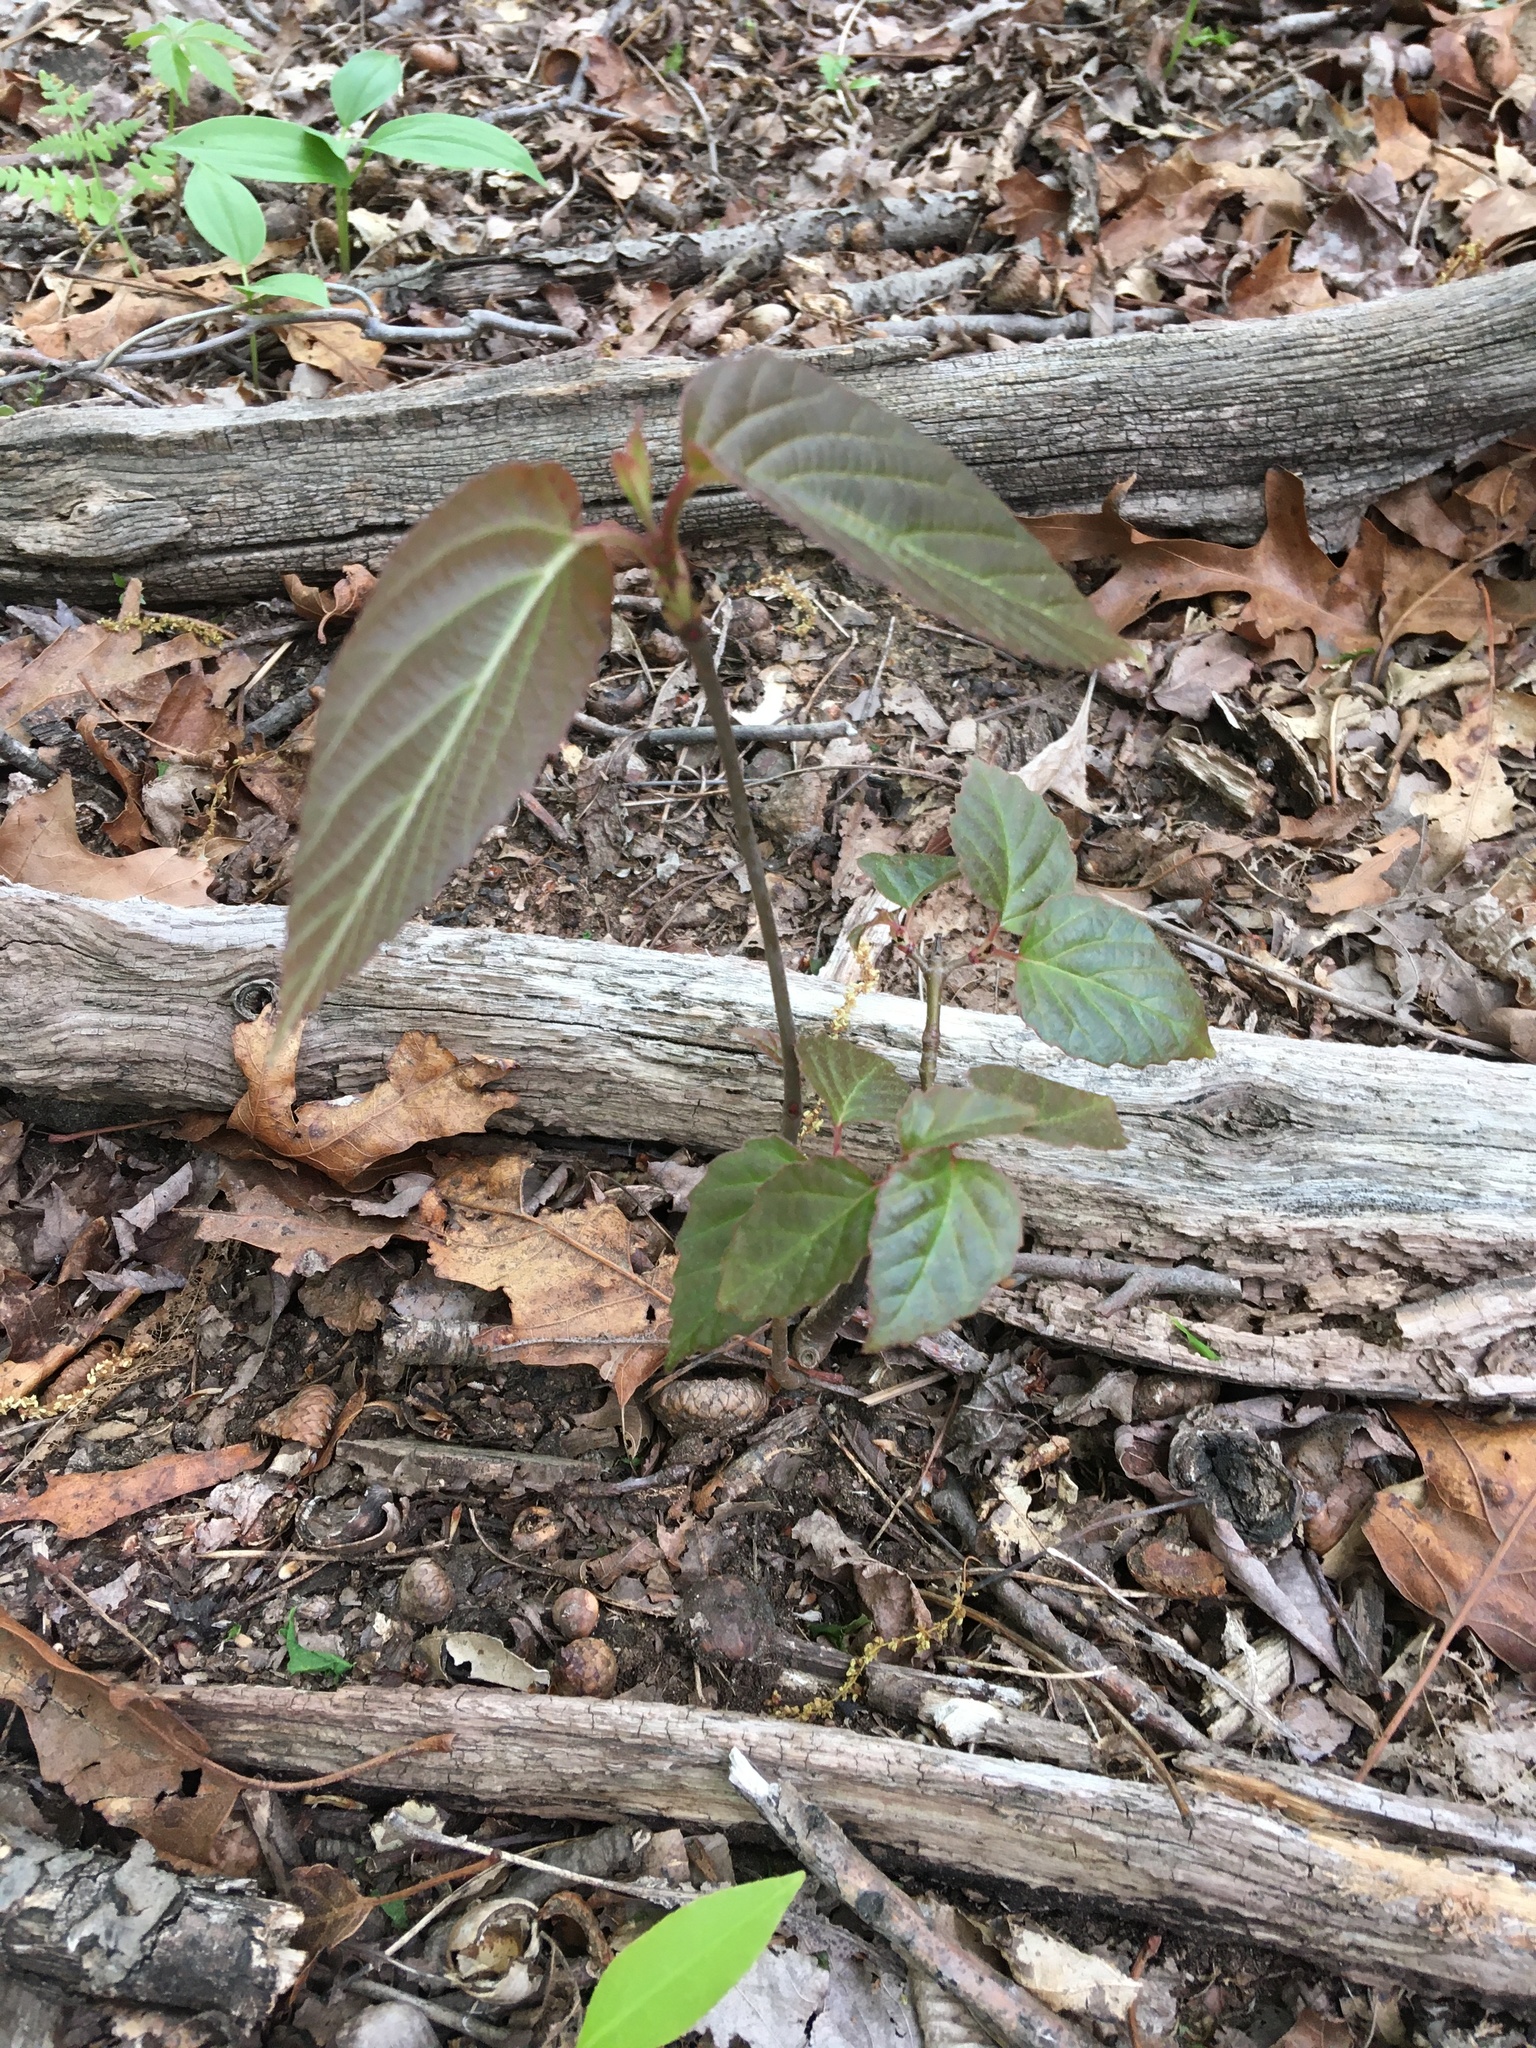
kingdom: Plantae
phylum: Tracheophyta
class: Magnoliopsida
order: Dipsacales
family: Viburnaceae
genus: Viburnum
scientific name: Viburnum setigerum
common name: Tea viburnum
